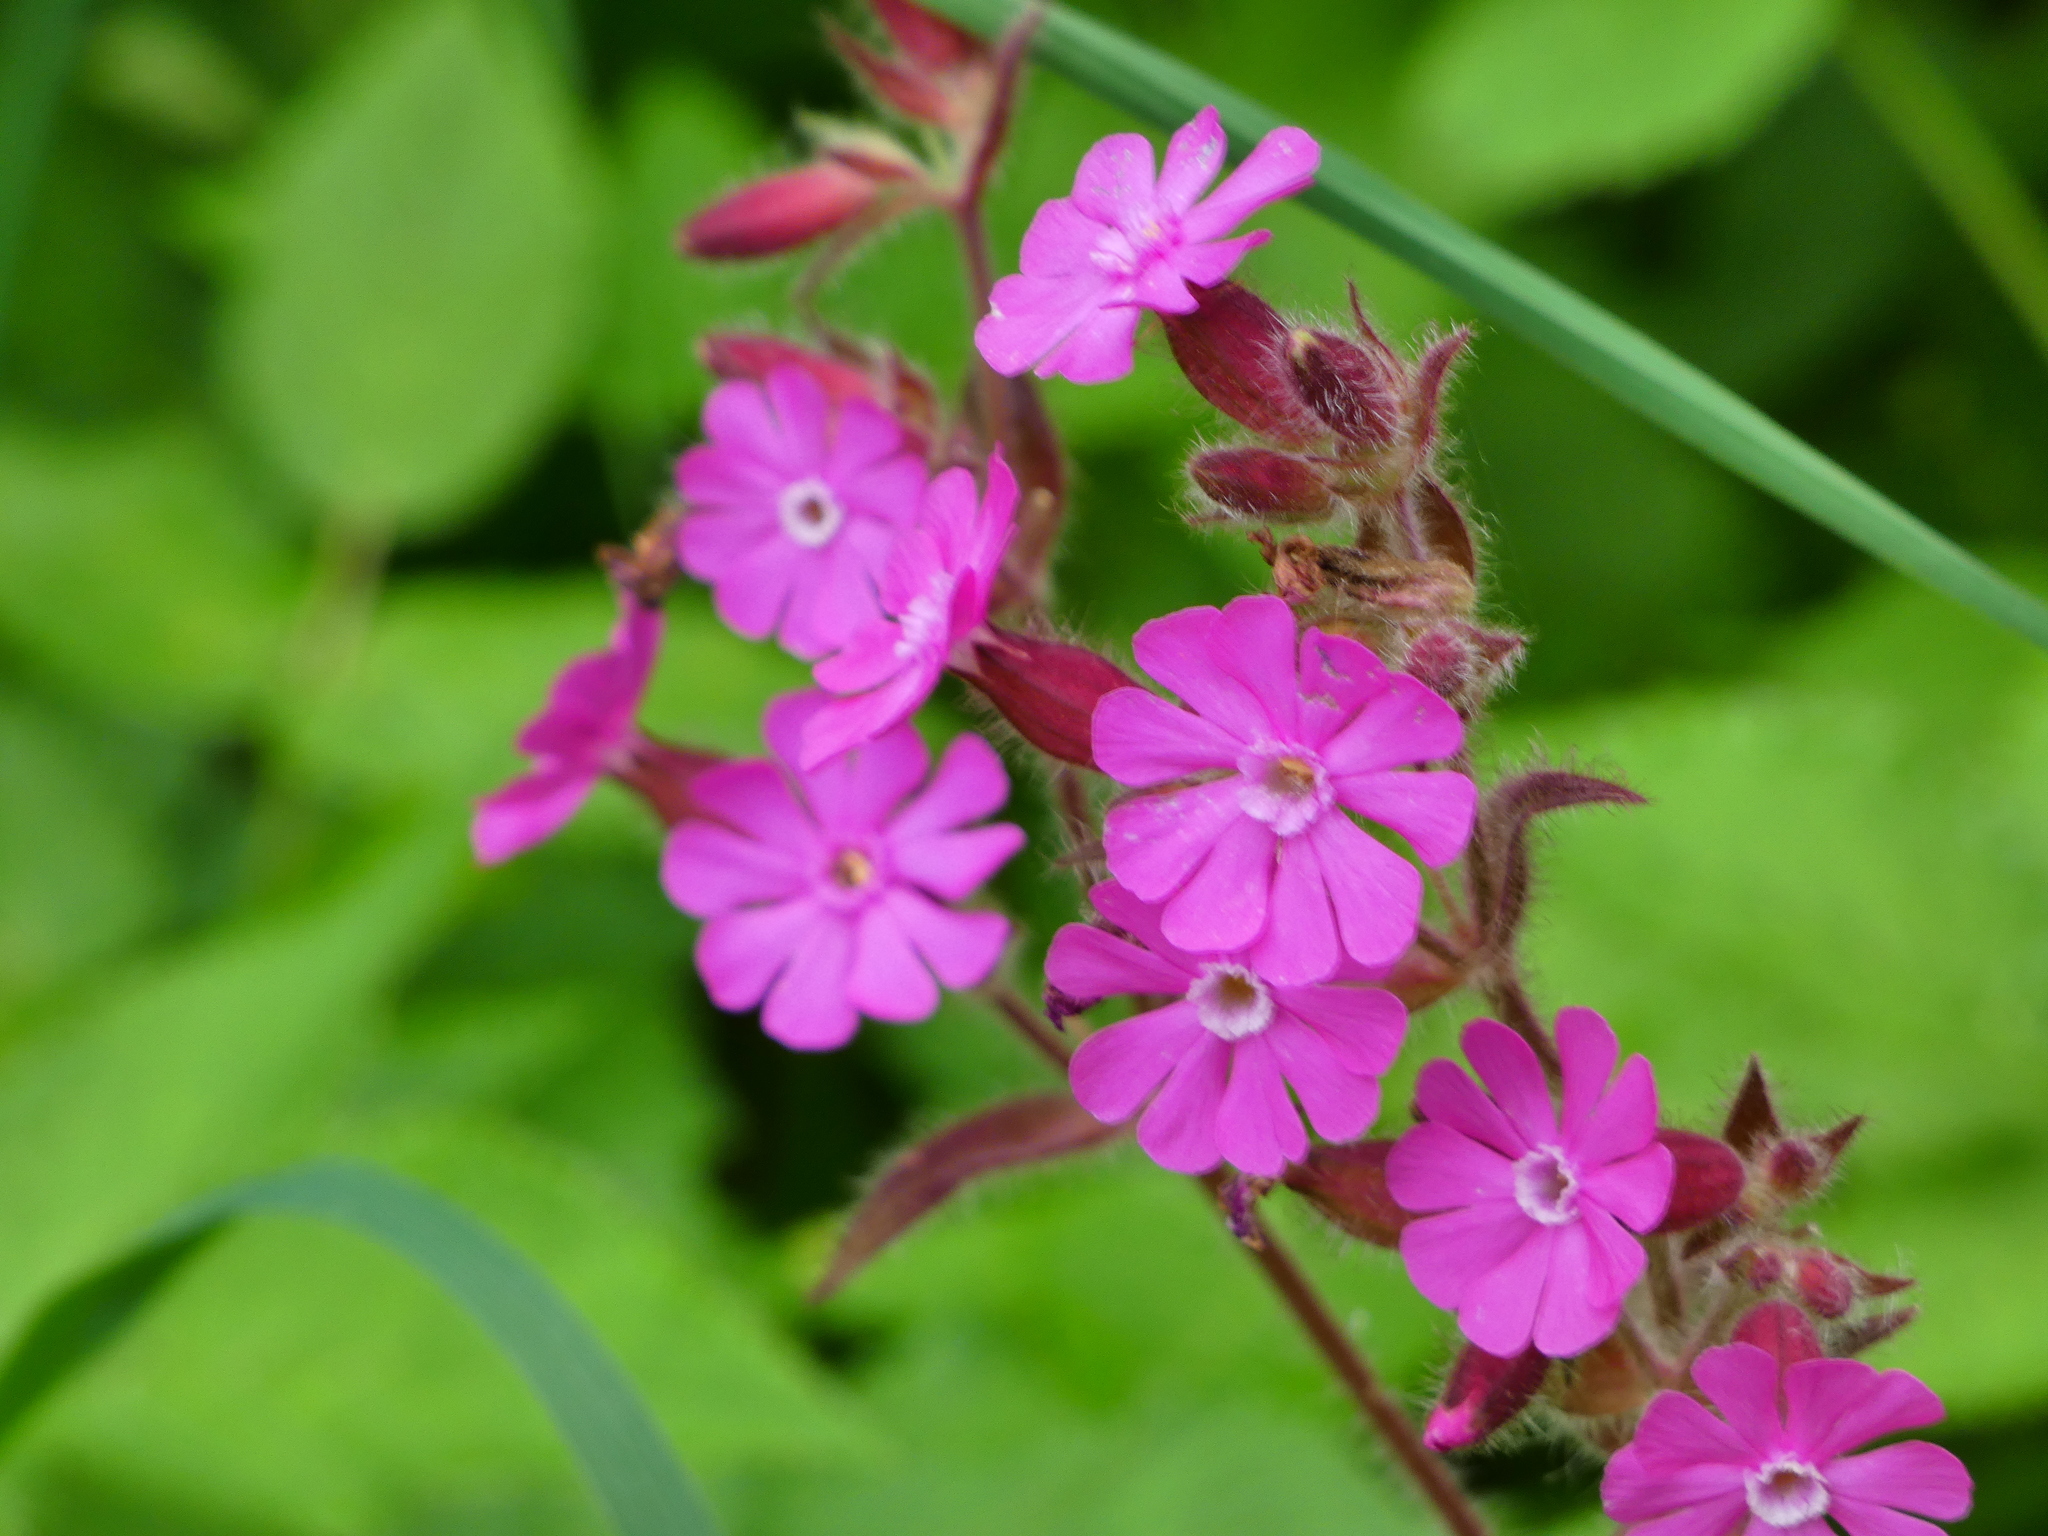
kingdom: Plantae
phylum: Tracheophyta
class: Magnoliopsida
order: Caryophyllales
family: Caryophyllaceae
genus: Silene
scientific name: Silene dioica
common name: Red campion
